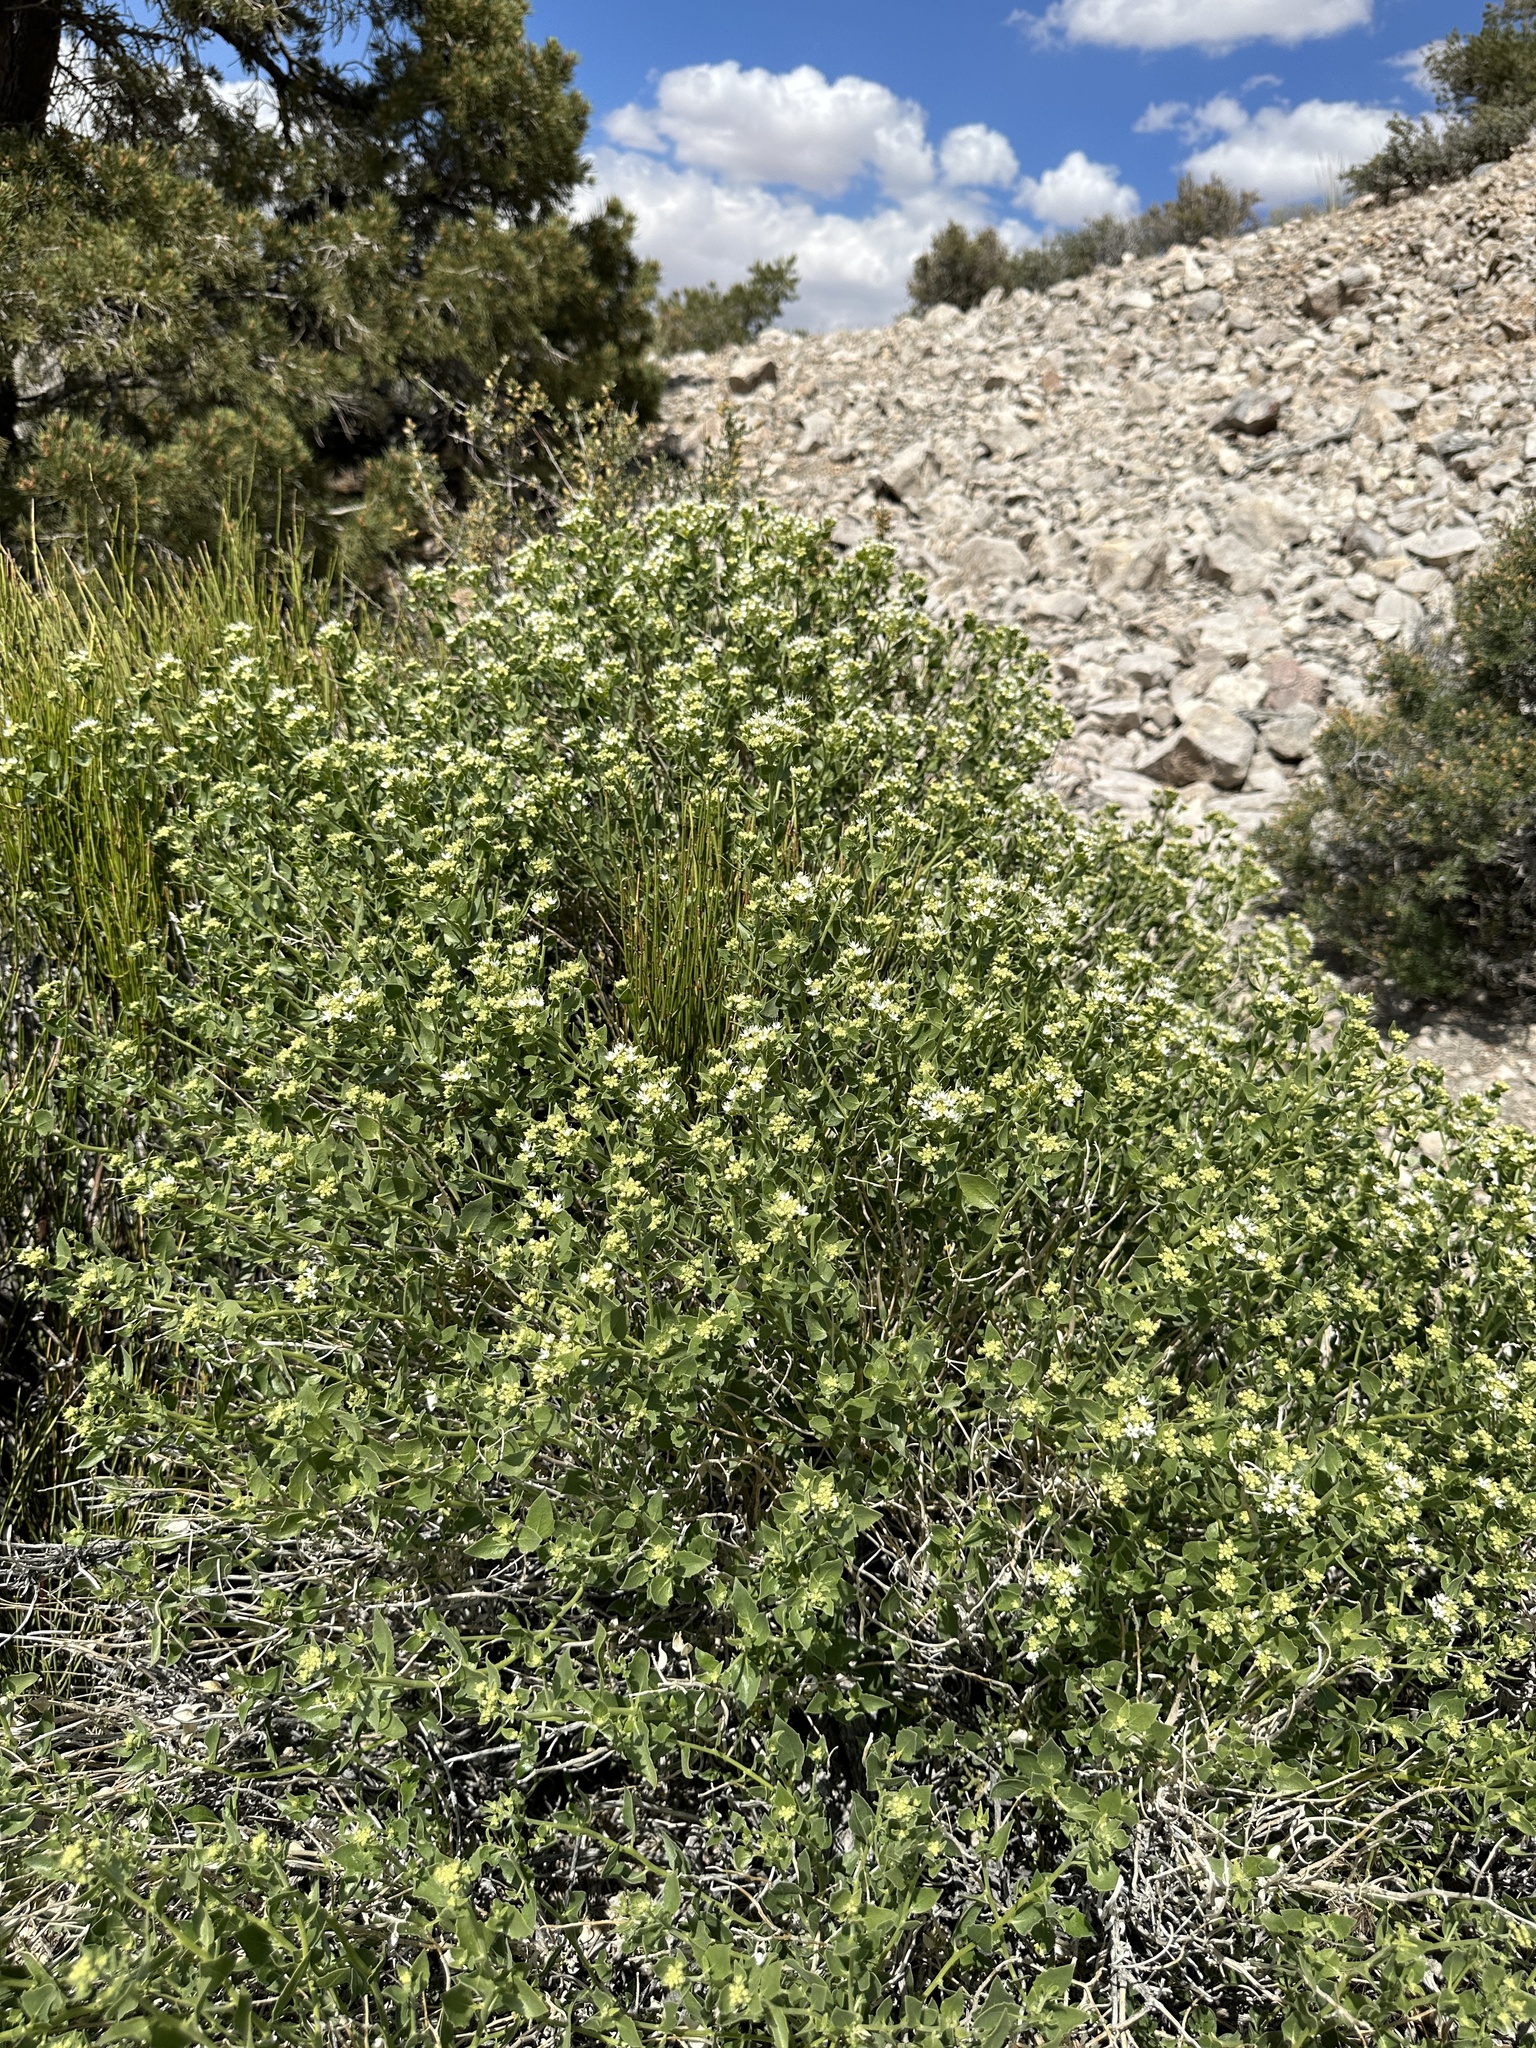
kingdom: Plantae
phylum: Tracheophyta
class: Magnoliopsida
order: Cornales
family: Loasaceae
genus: Petalonyx
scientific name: Petalonyx nitidus
